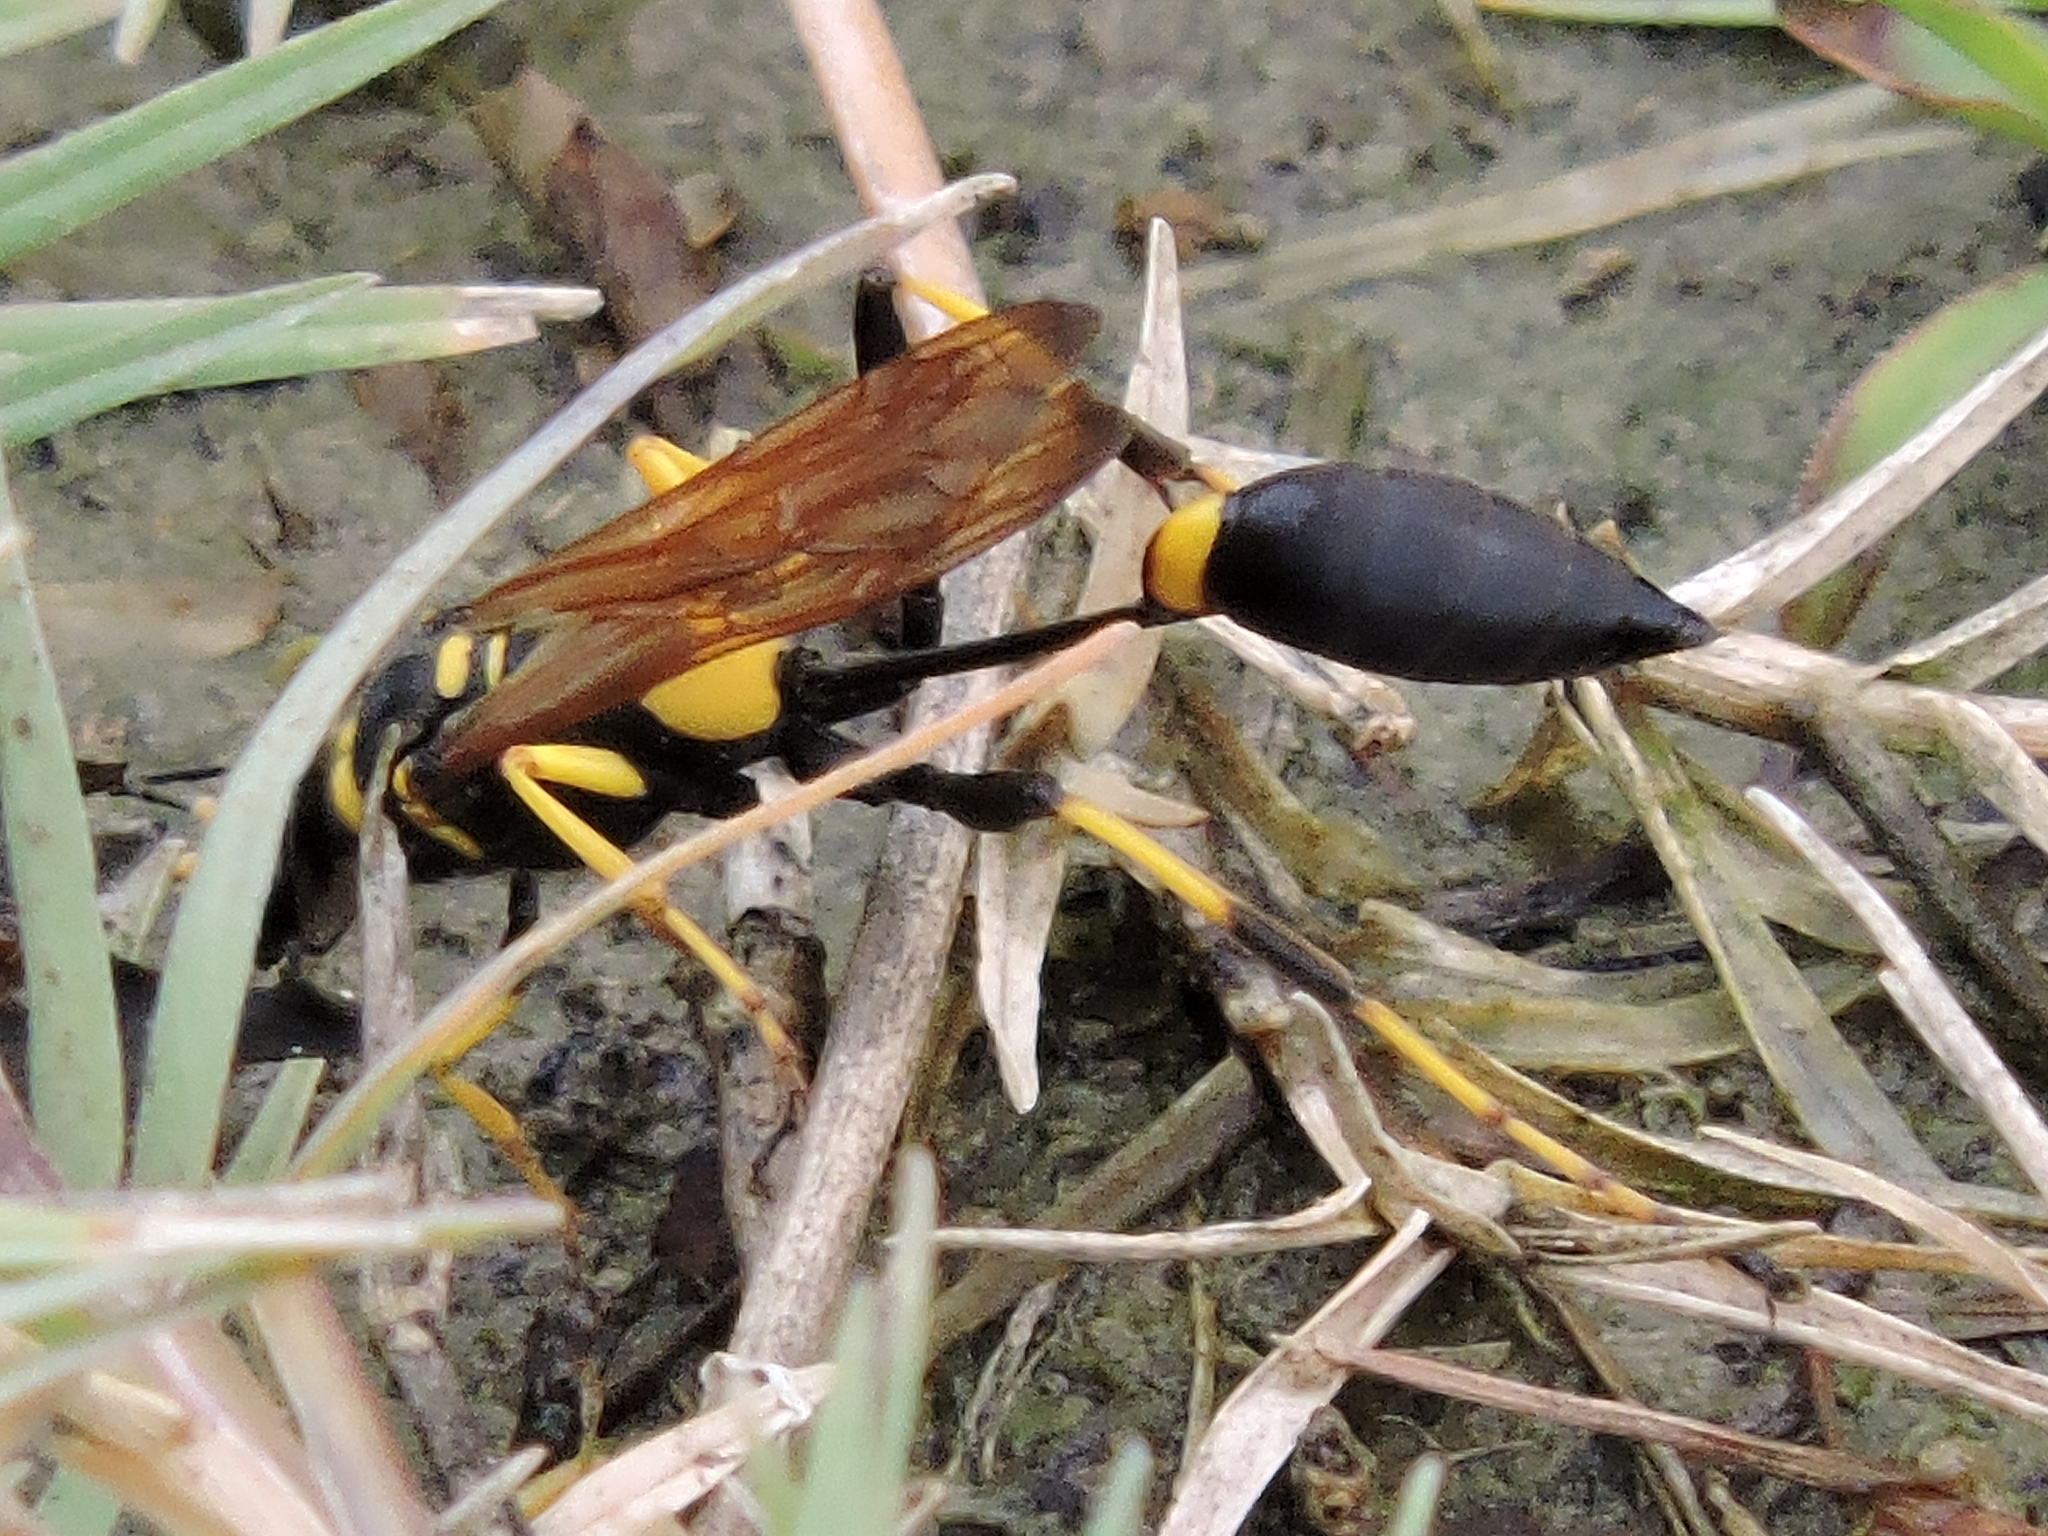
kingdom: Animalia
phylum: Arthropoda
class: Insecta
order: Hymenoptera
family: Sphecidae
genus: Sceliphron
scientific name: Sceliphron caementarium
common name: Mud dauber
